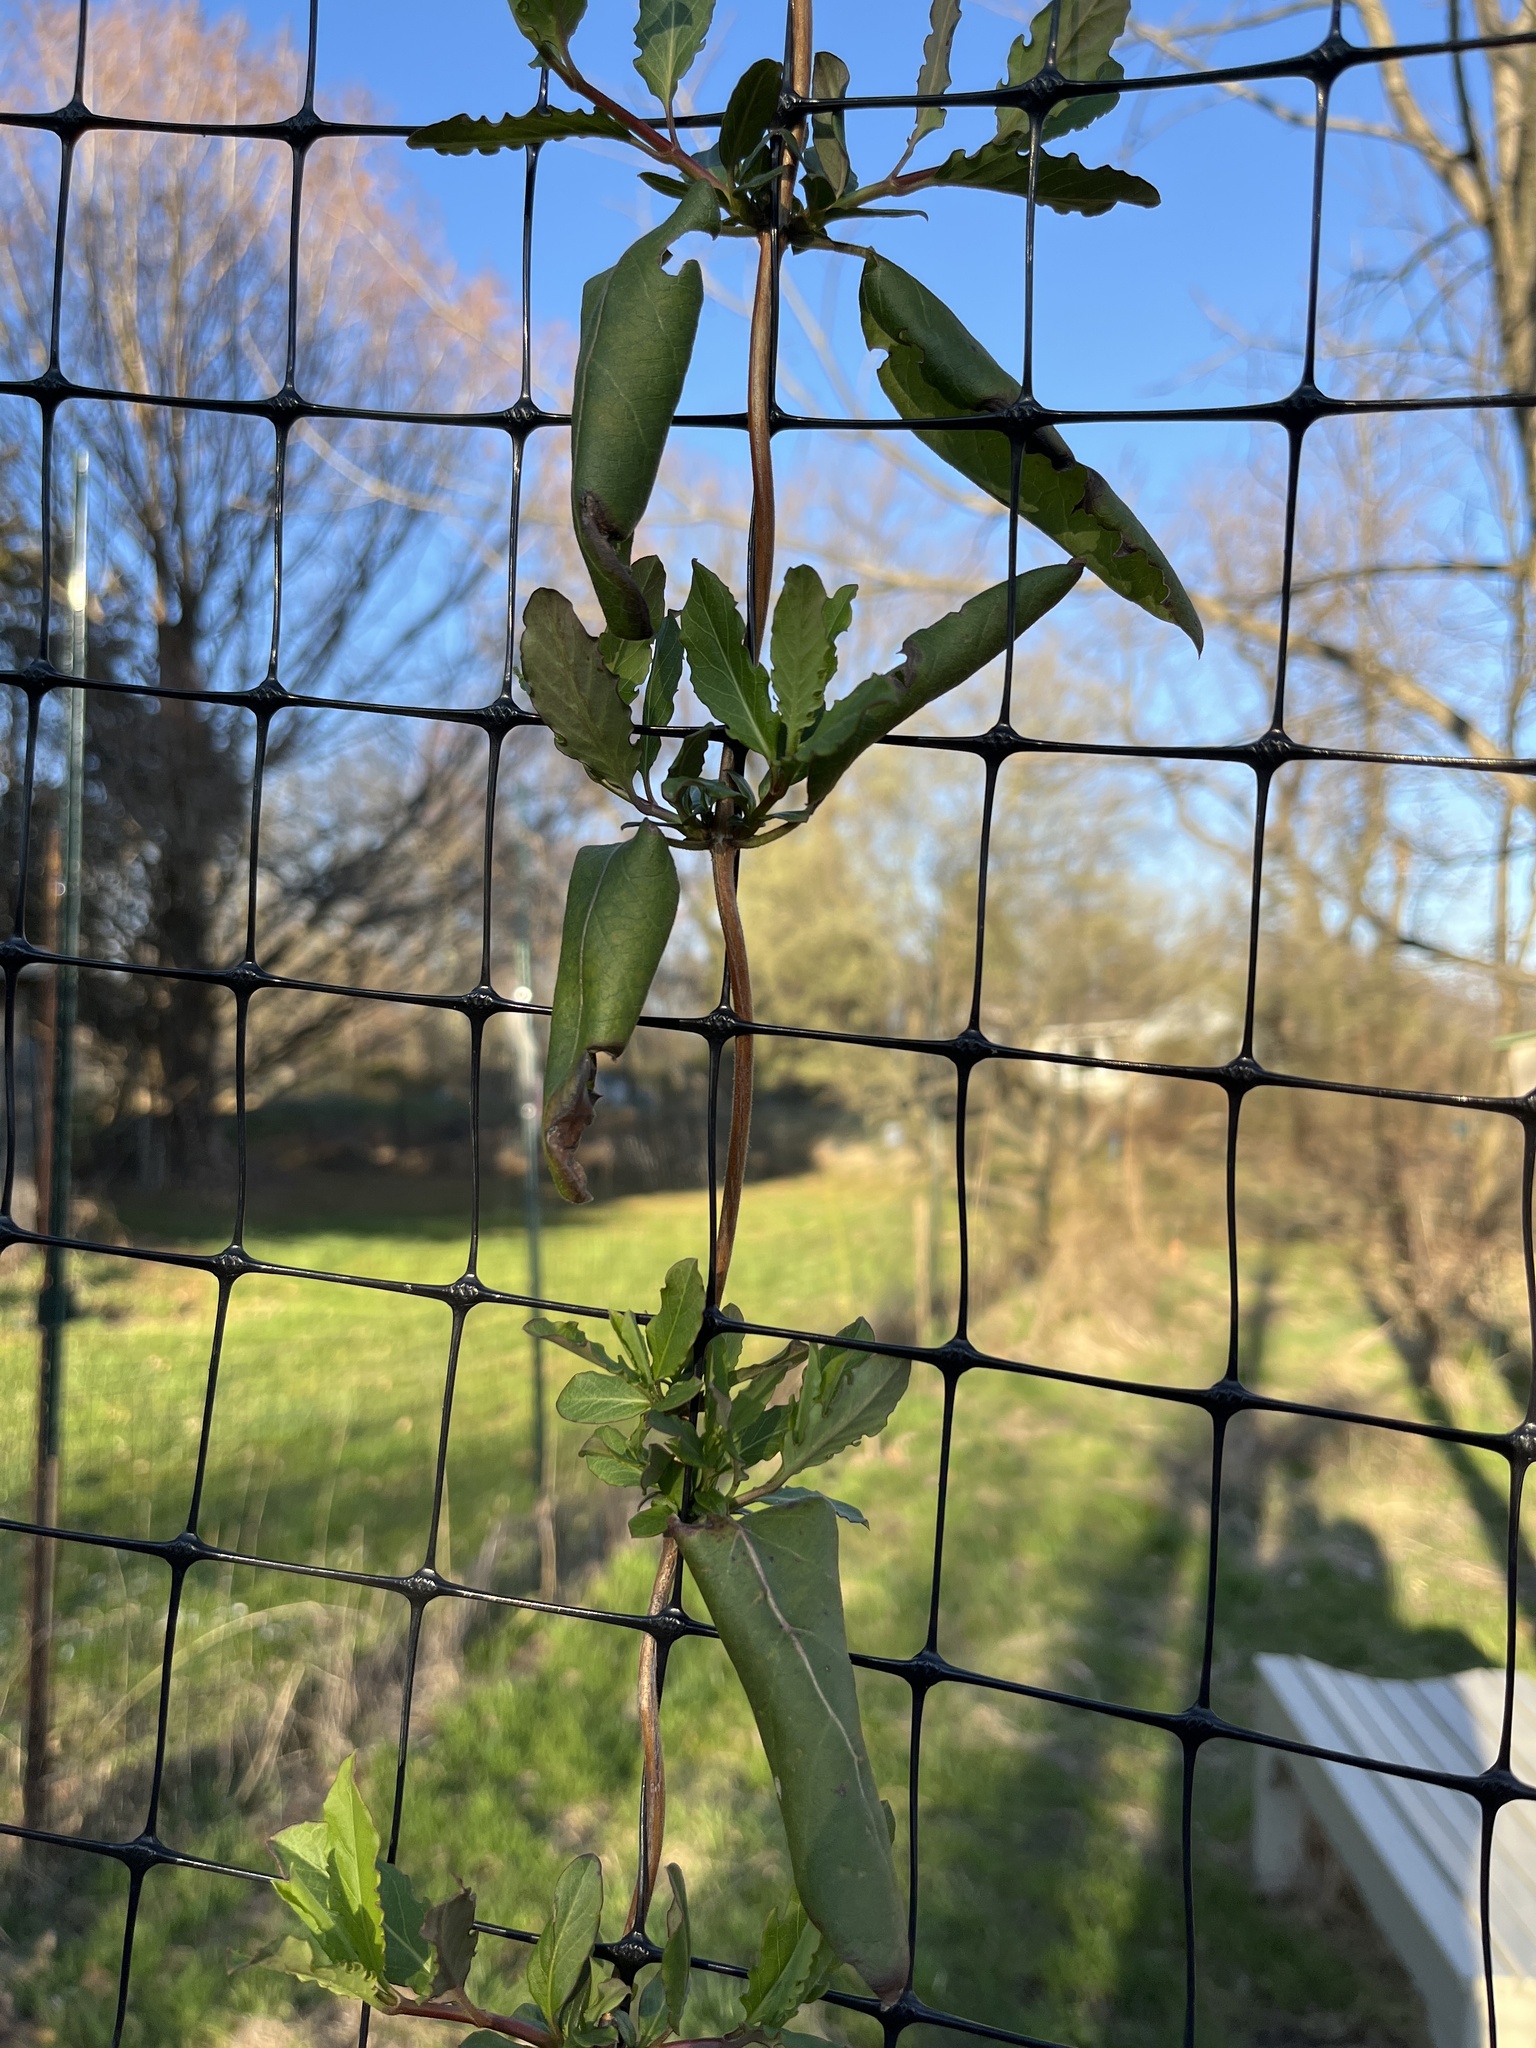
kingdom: Plantae
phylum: Tracheophyta
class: Magnoliopsida
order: Dipsacales
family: Caprifoliaceae
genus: Lonicera
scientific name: Lonicera japonica
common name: Japanese honeysuckle
